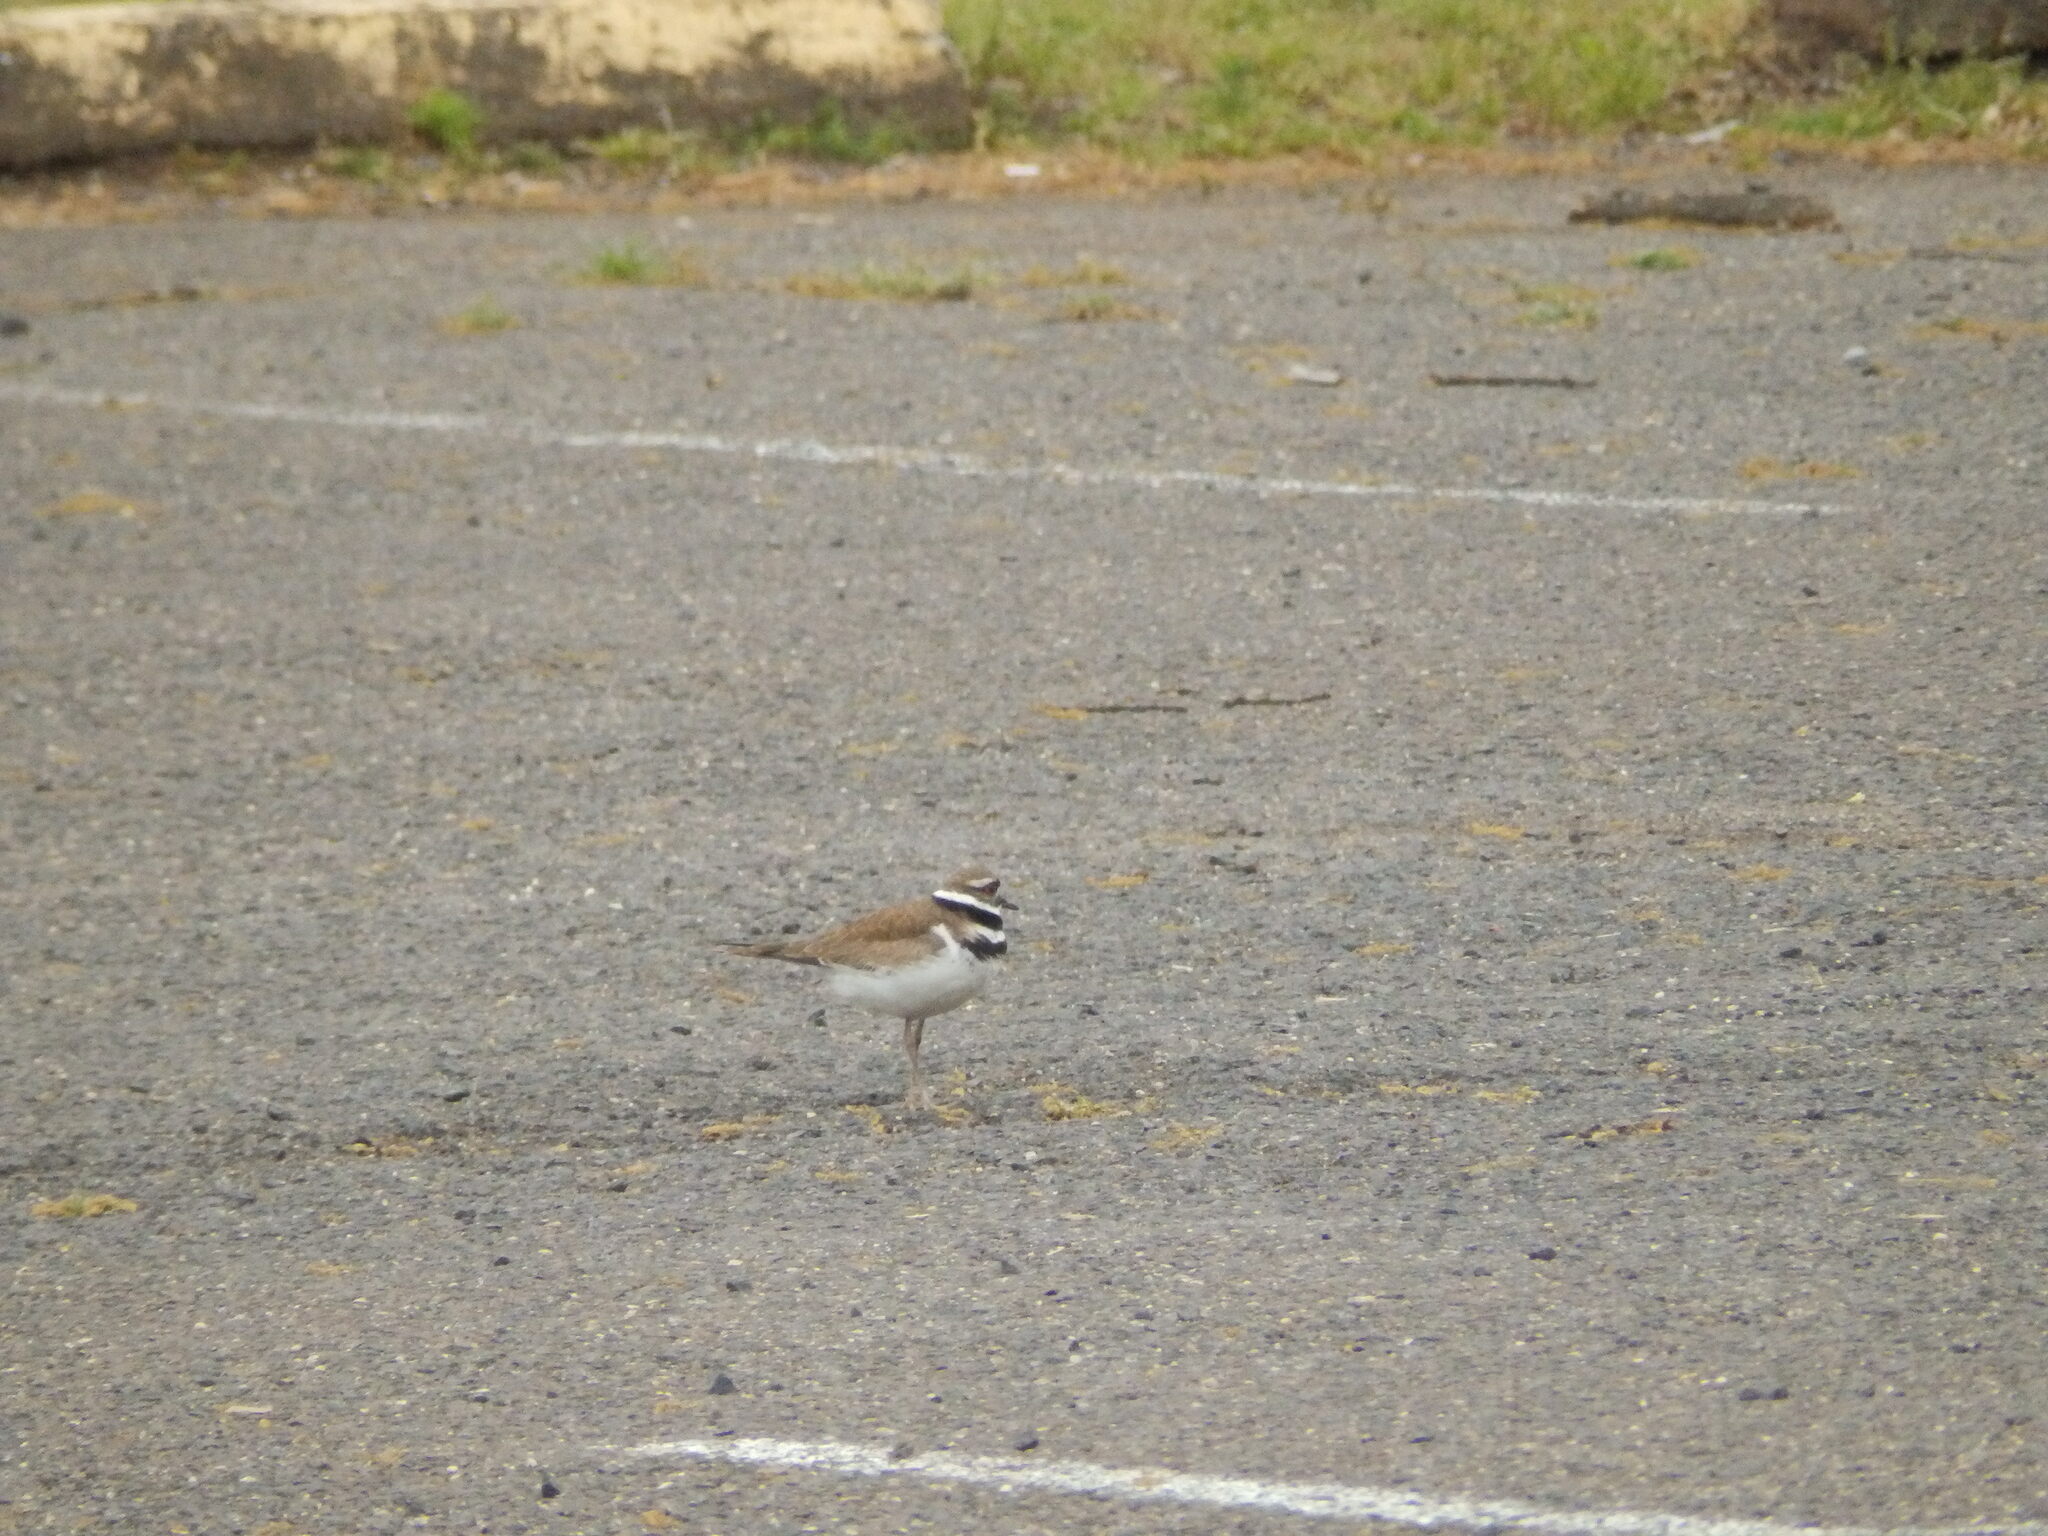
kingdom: Animalia
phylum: Chordata
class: Aves
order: Charadriiformes
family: Charadriidae
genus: Charadrius
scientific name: Charadrius vociferus
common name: Killdeer
